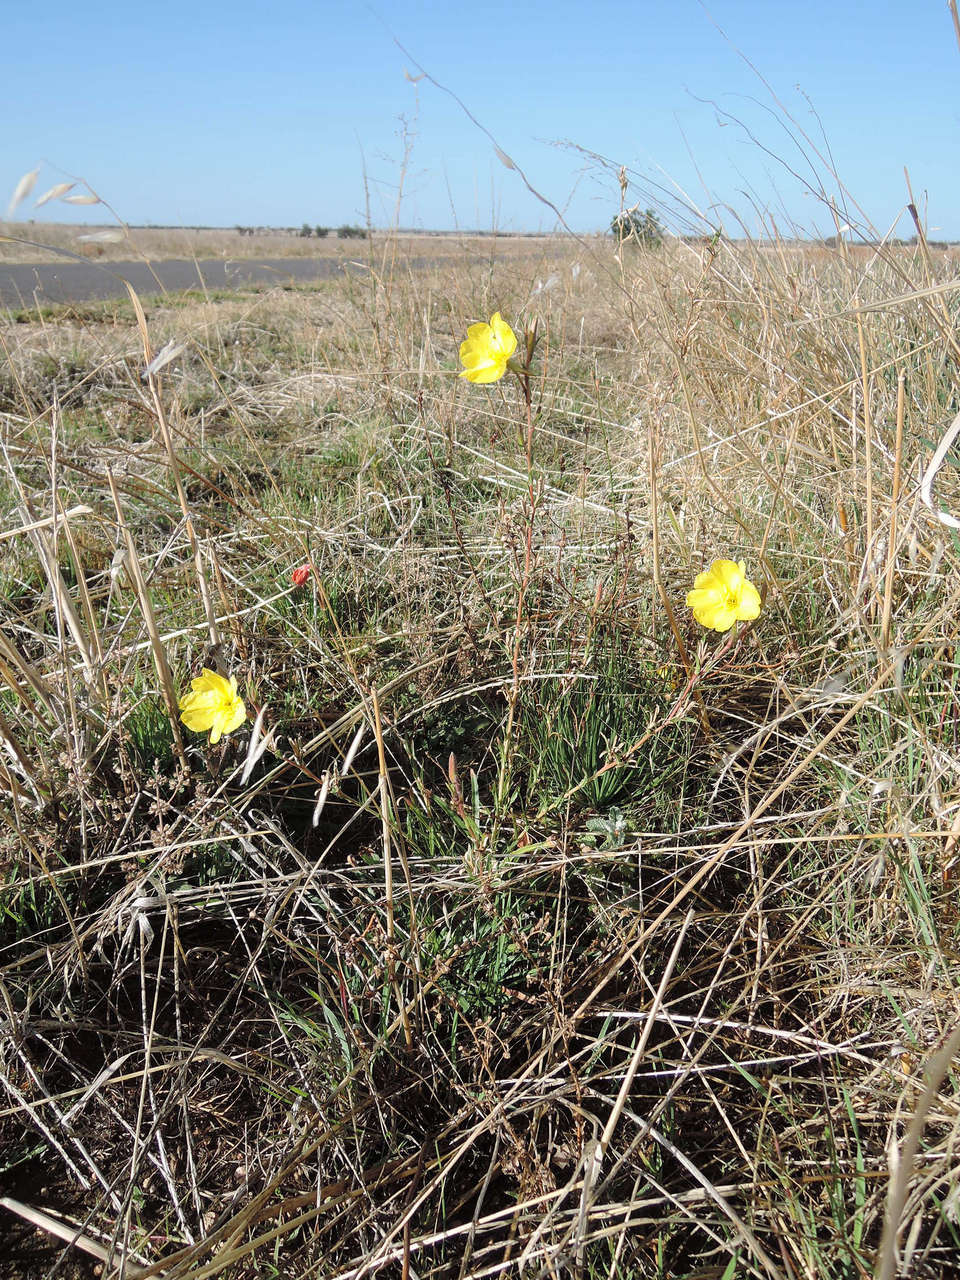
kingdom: Plantae
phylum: Tracheophyta
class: Magnoliopsida
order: Myrtales
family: Onagraceae
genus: Oenothera
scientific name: Oenothera stricta
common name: Fragrant evening-primrose
